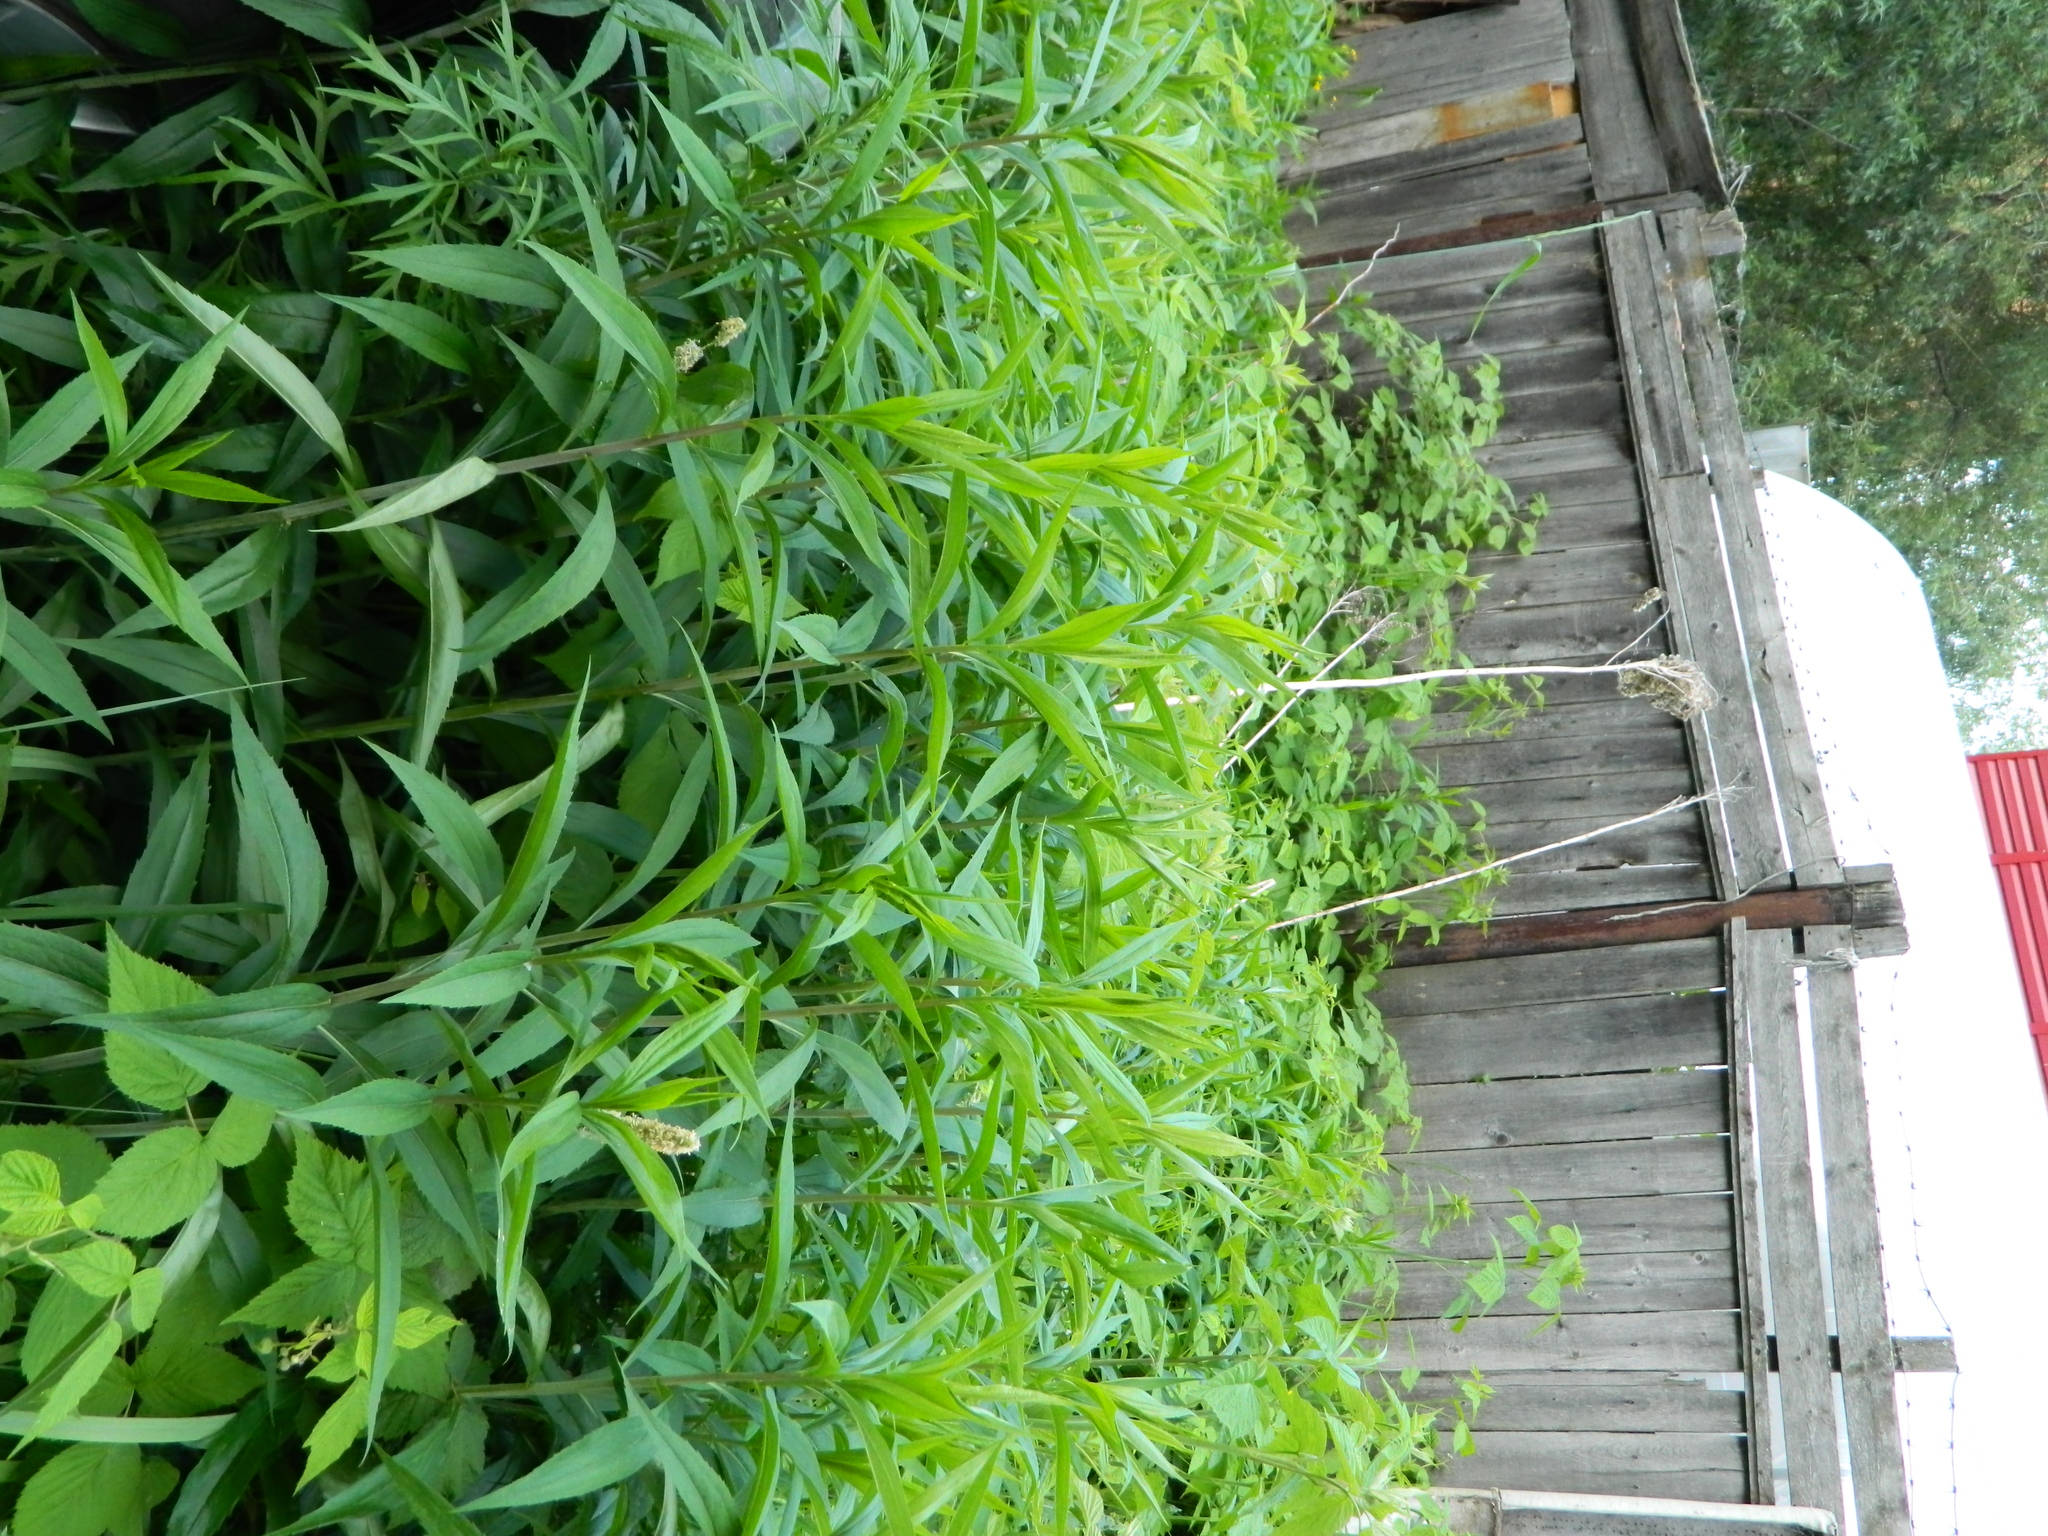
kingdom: Plantae
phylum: Tracheophyta
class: Magnoliopsida
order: Asterales
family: Asteraceae
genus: Solidago
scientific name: Solidago gigantea
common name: Giant goldenrod
